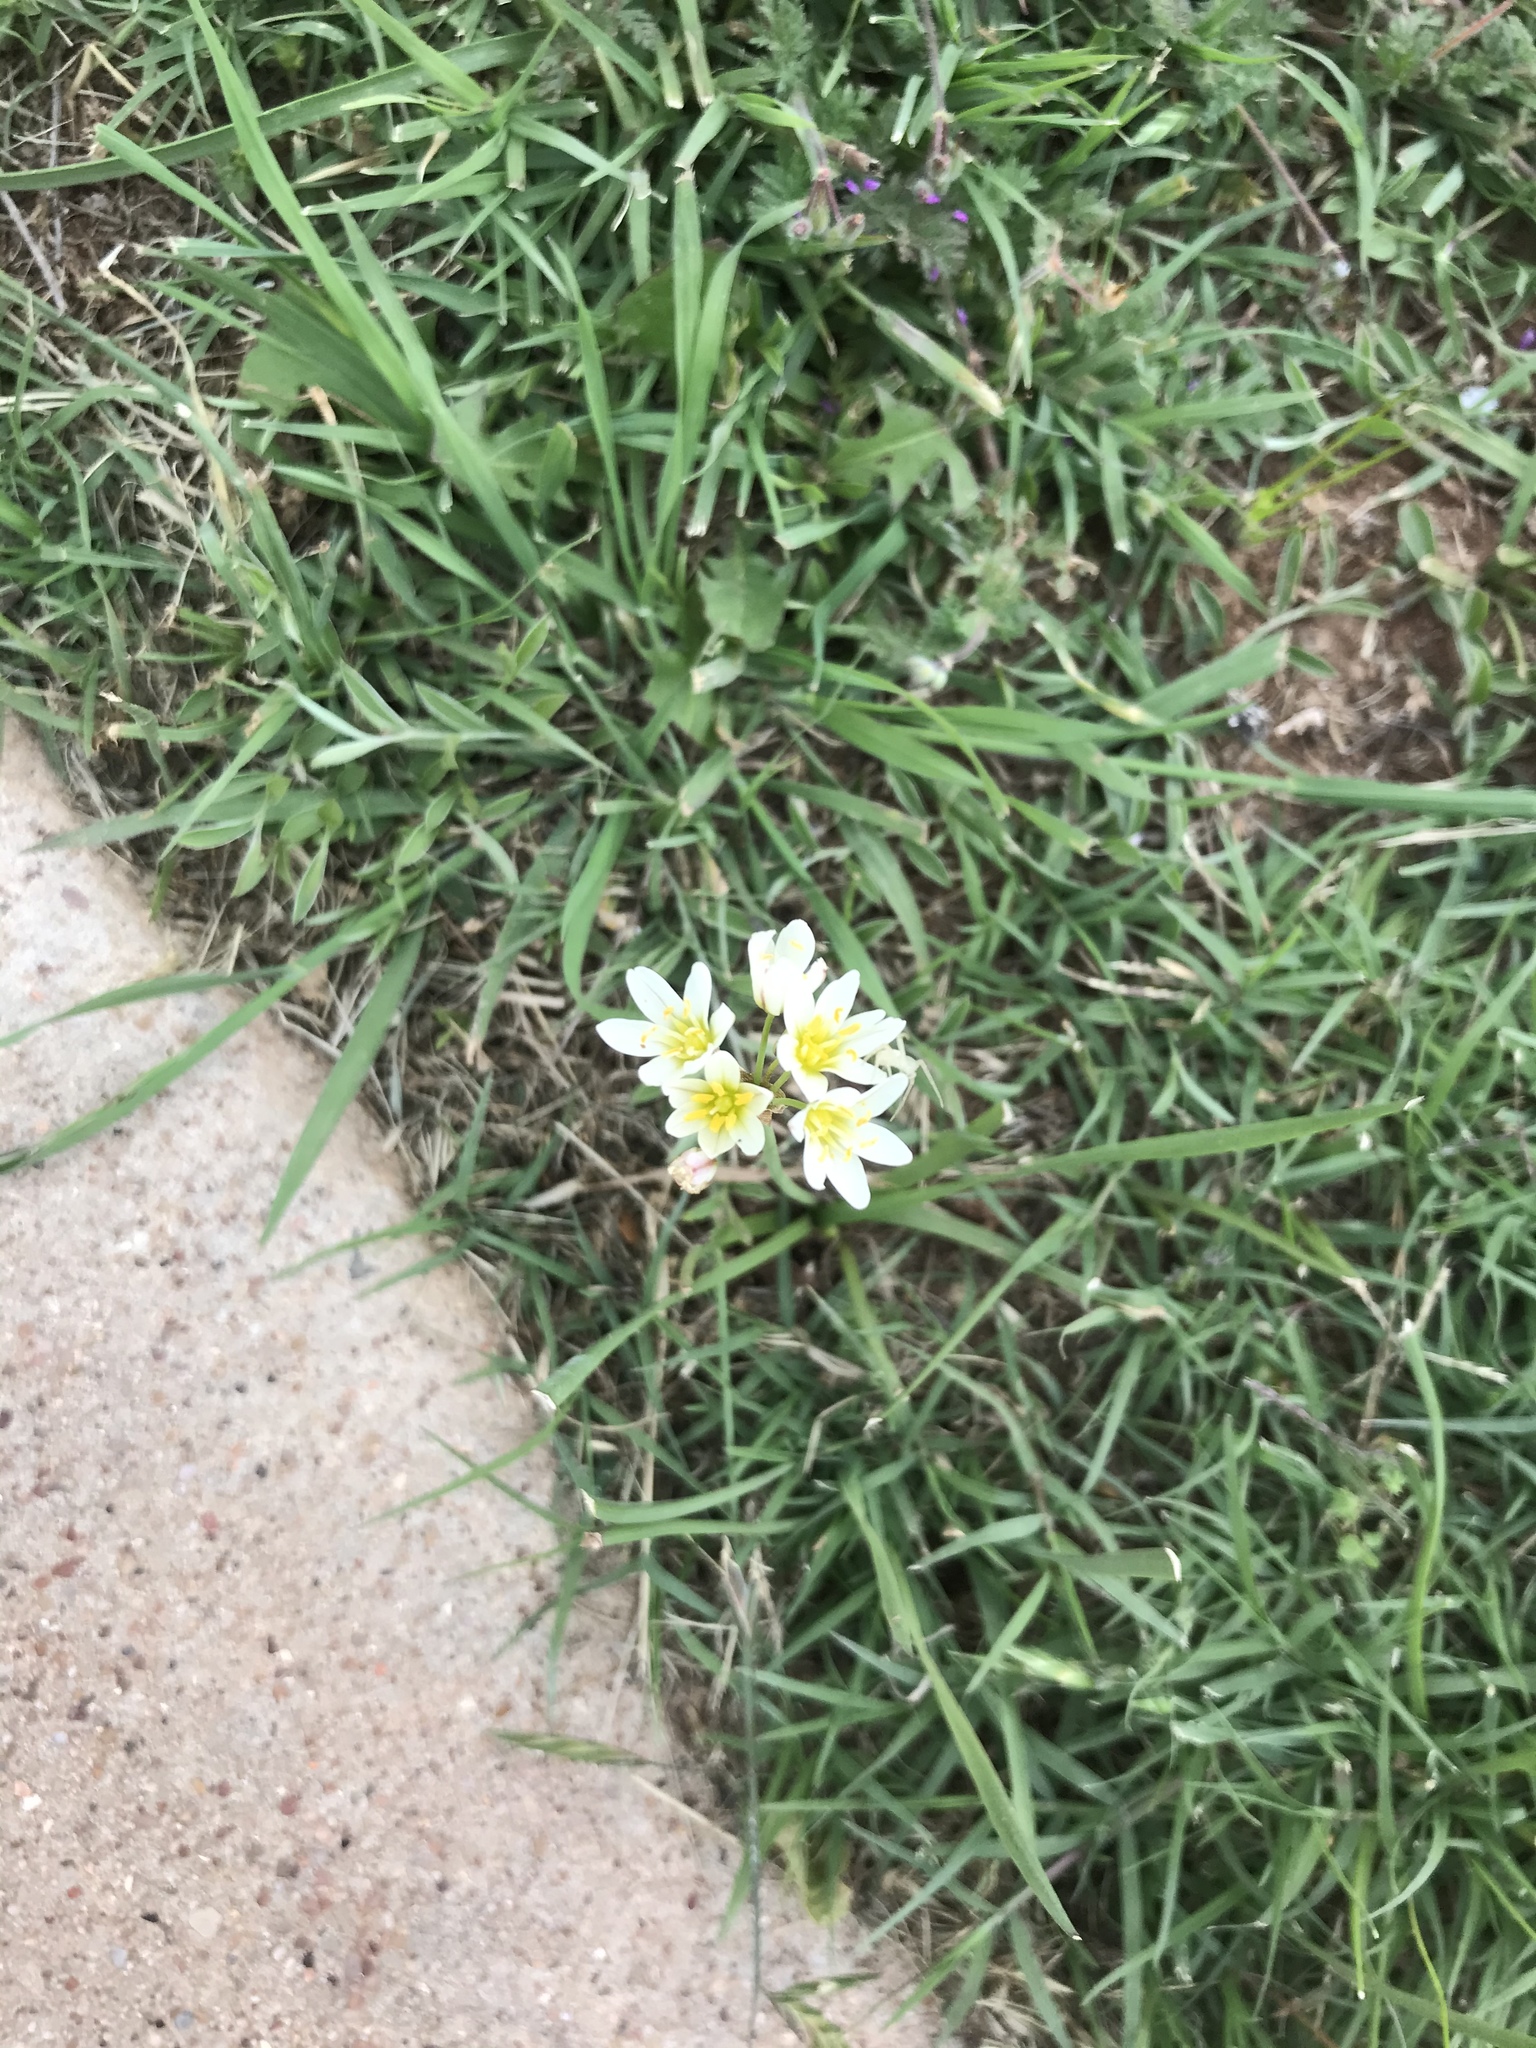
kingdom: Plantae
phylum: Tracheophyta
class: Liliopsida
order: Asparagales
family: Amaryllidaceae
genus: Nothoscordum
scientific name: Nothoscordum bivalve
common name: Crow-poison
